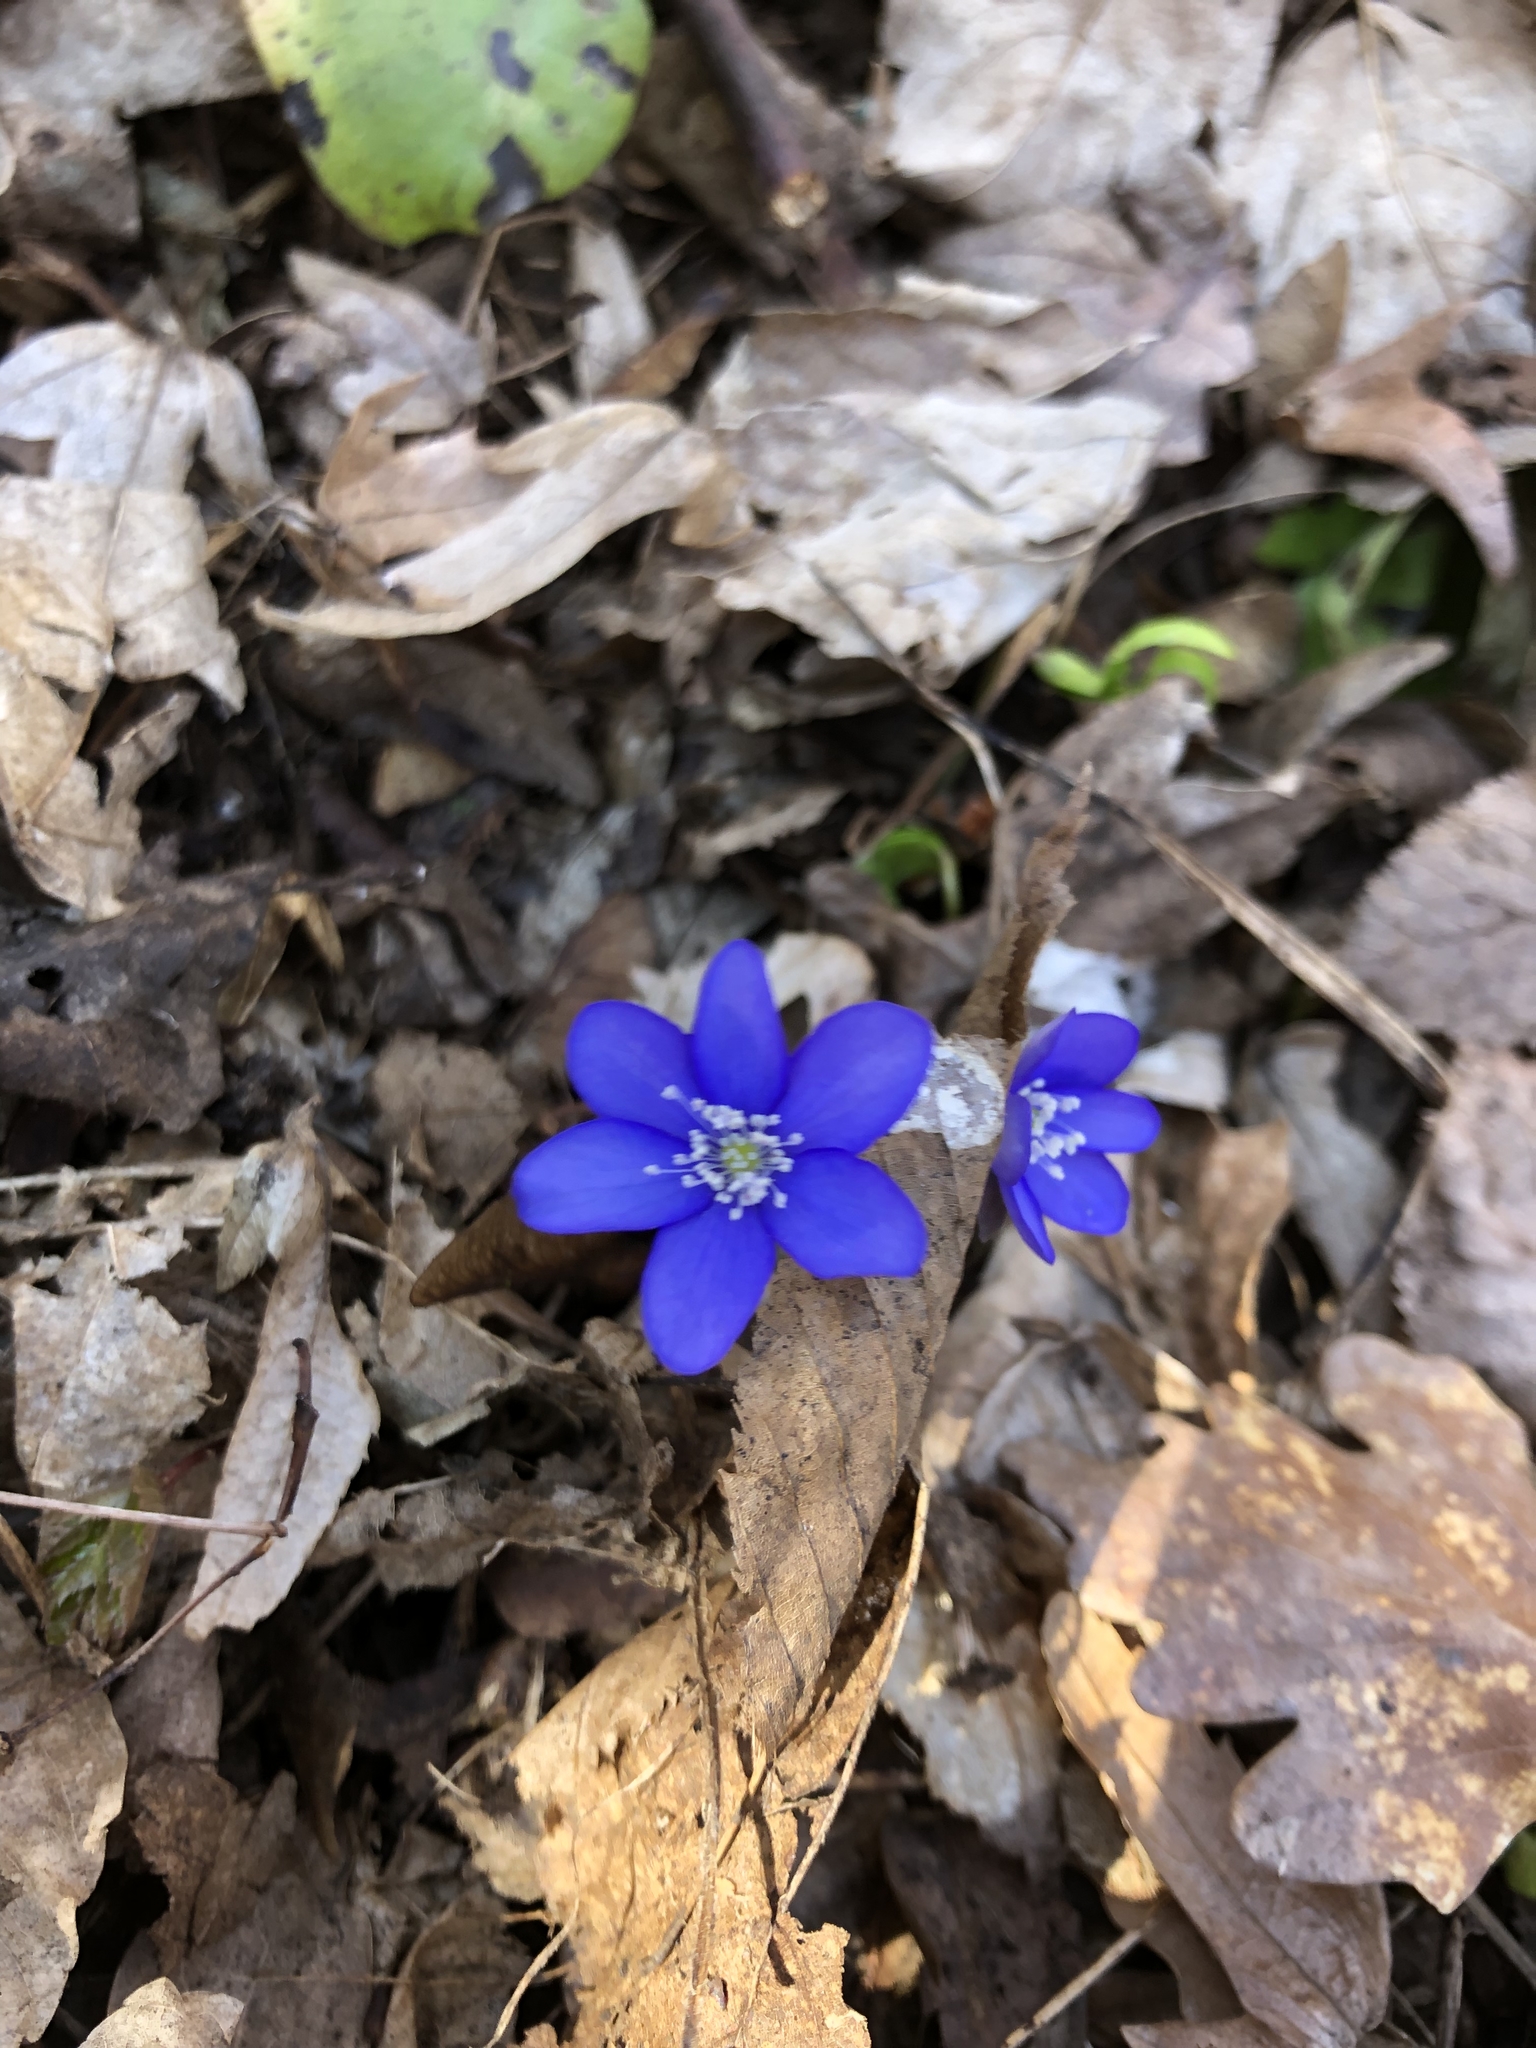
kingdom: Plantae
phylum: Tracheophyta
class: Magnoliopsida
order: Ranunculales
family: Ranunculaceae
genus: Hepatica
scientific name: Hepatica nobilis
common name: Liverleaf
